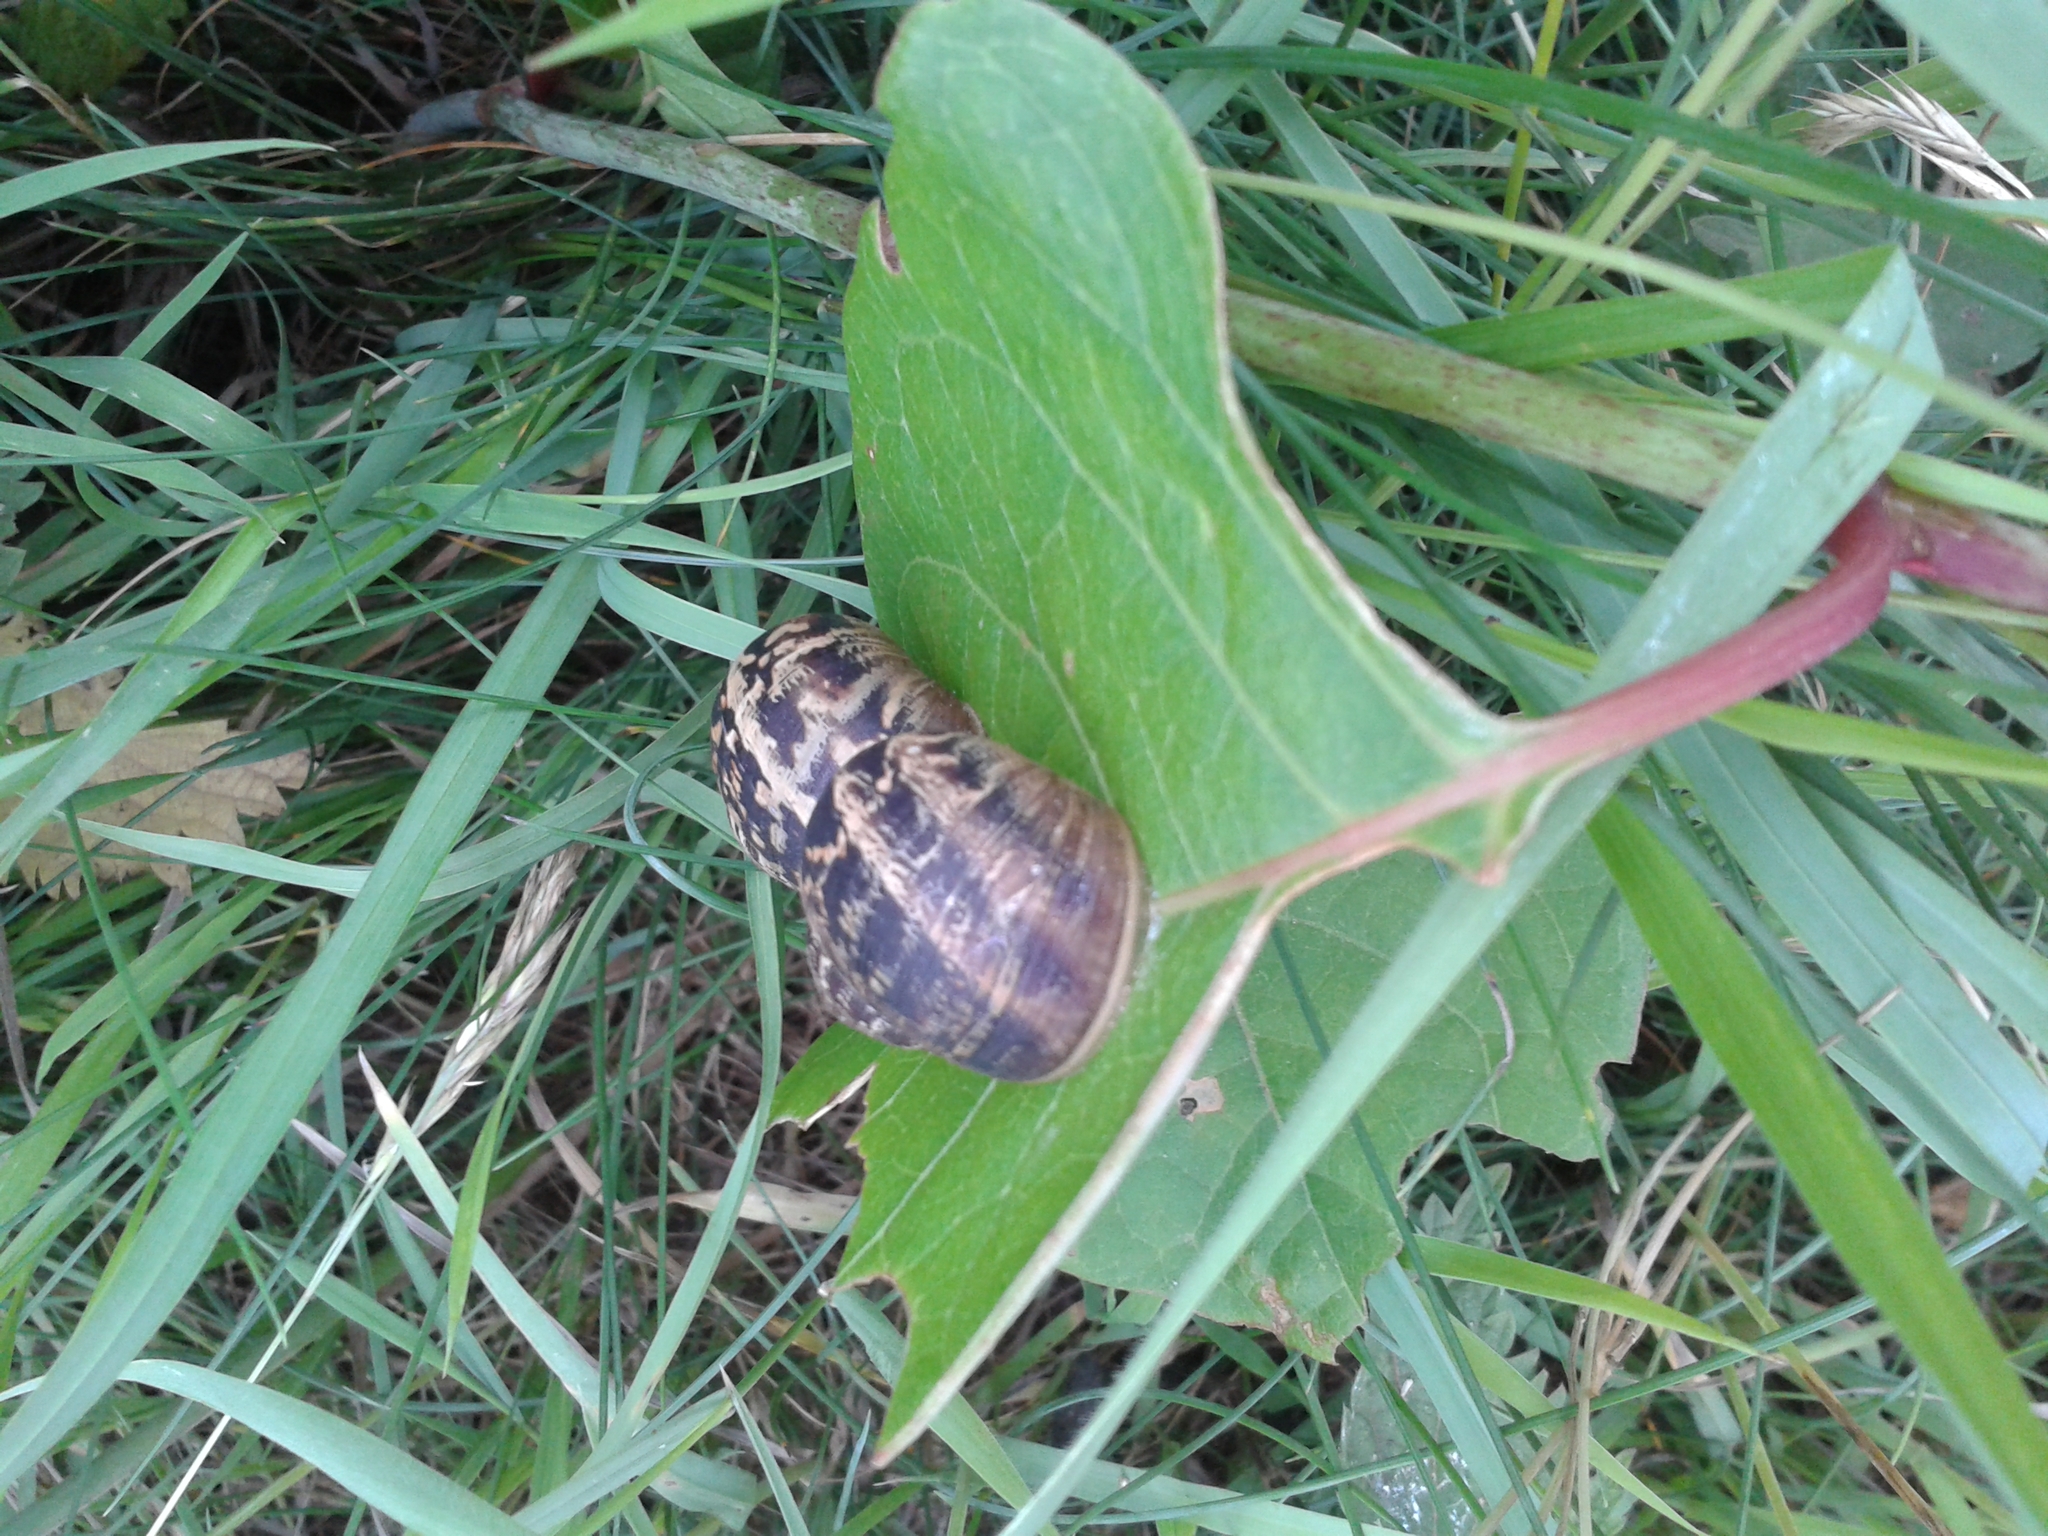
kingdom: Animalia
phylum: Mollusca
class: Gastropoda
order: Stylommatophora
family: Helicidae
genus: Cornu
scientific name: Cornu aspersum
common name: Brown garden snail
